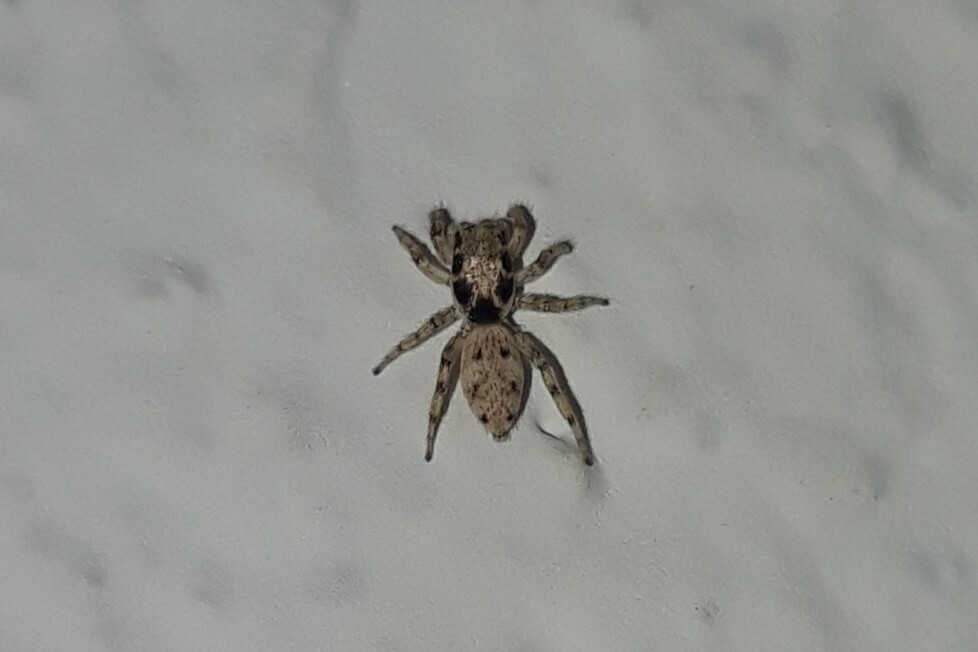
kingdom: Animalia
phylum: Arthropoda
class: Arachnida
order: Araneae
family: Salticidae
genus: Salticus
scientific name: Salticus mutabilis
